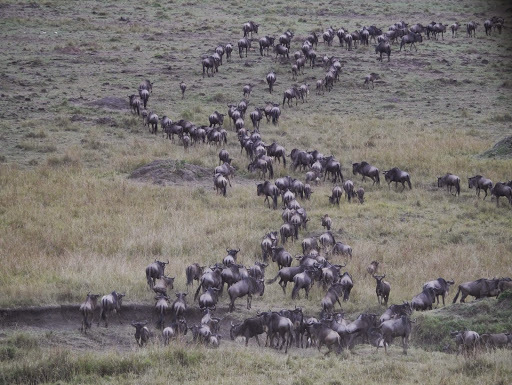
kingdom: Animalia
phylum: Chordata
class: Mammalia
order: Artiodactyla
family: Bovidae
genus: Connochaetes
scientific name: Connochaetes taurinus
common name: Blue wildebeest
